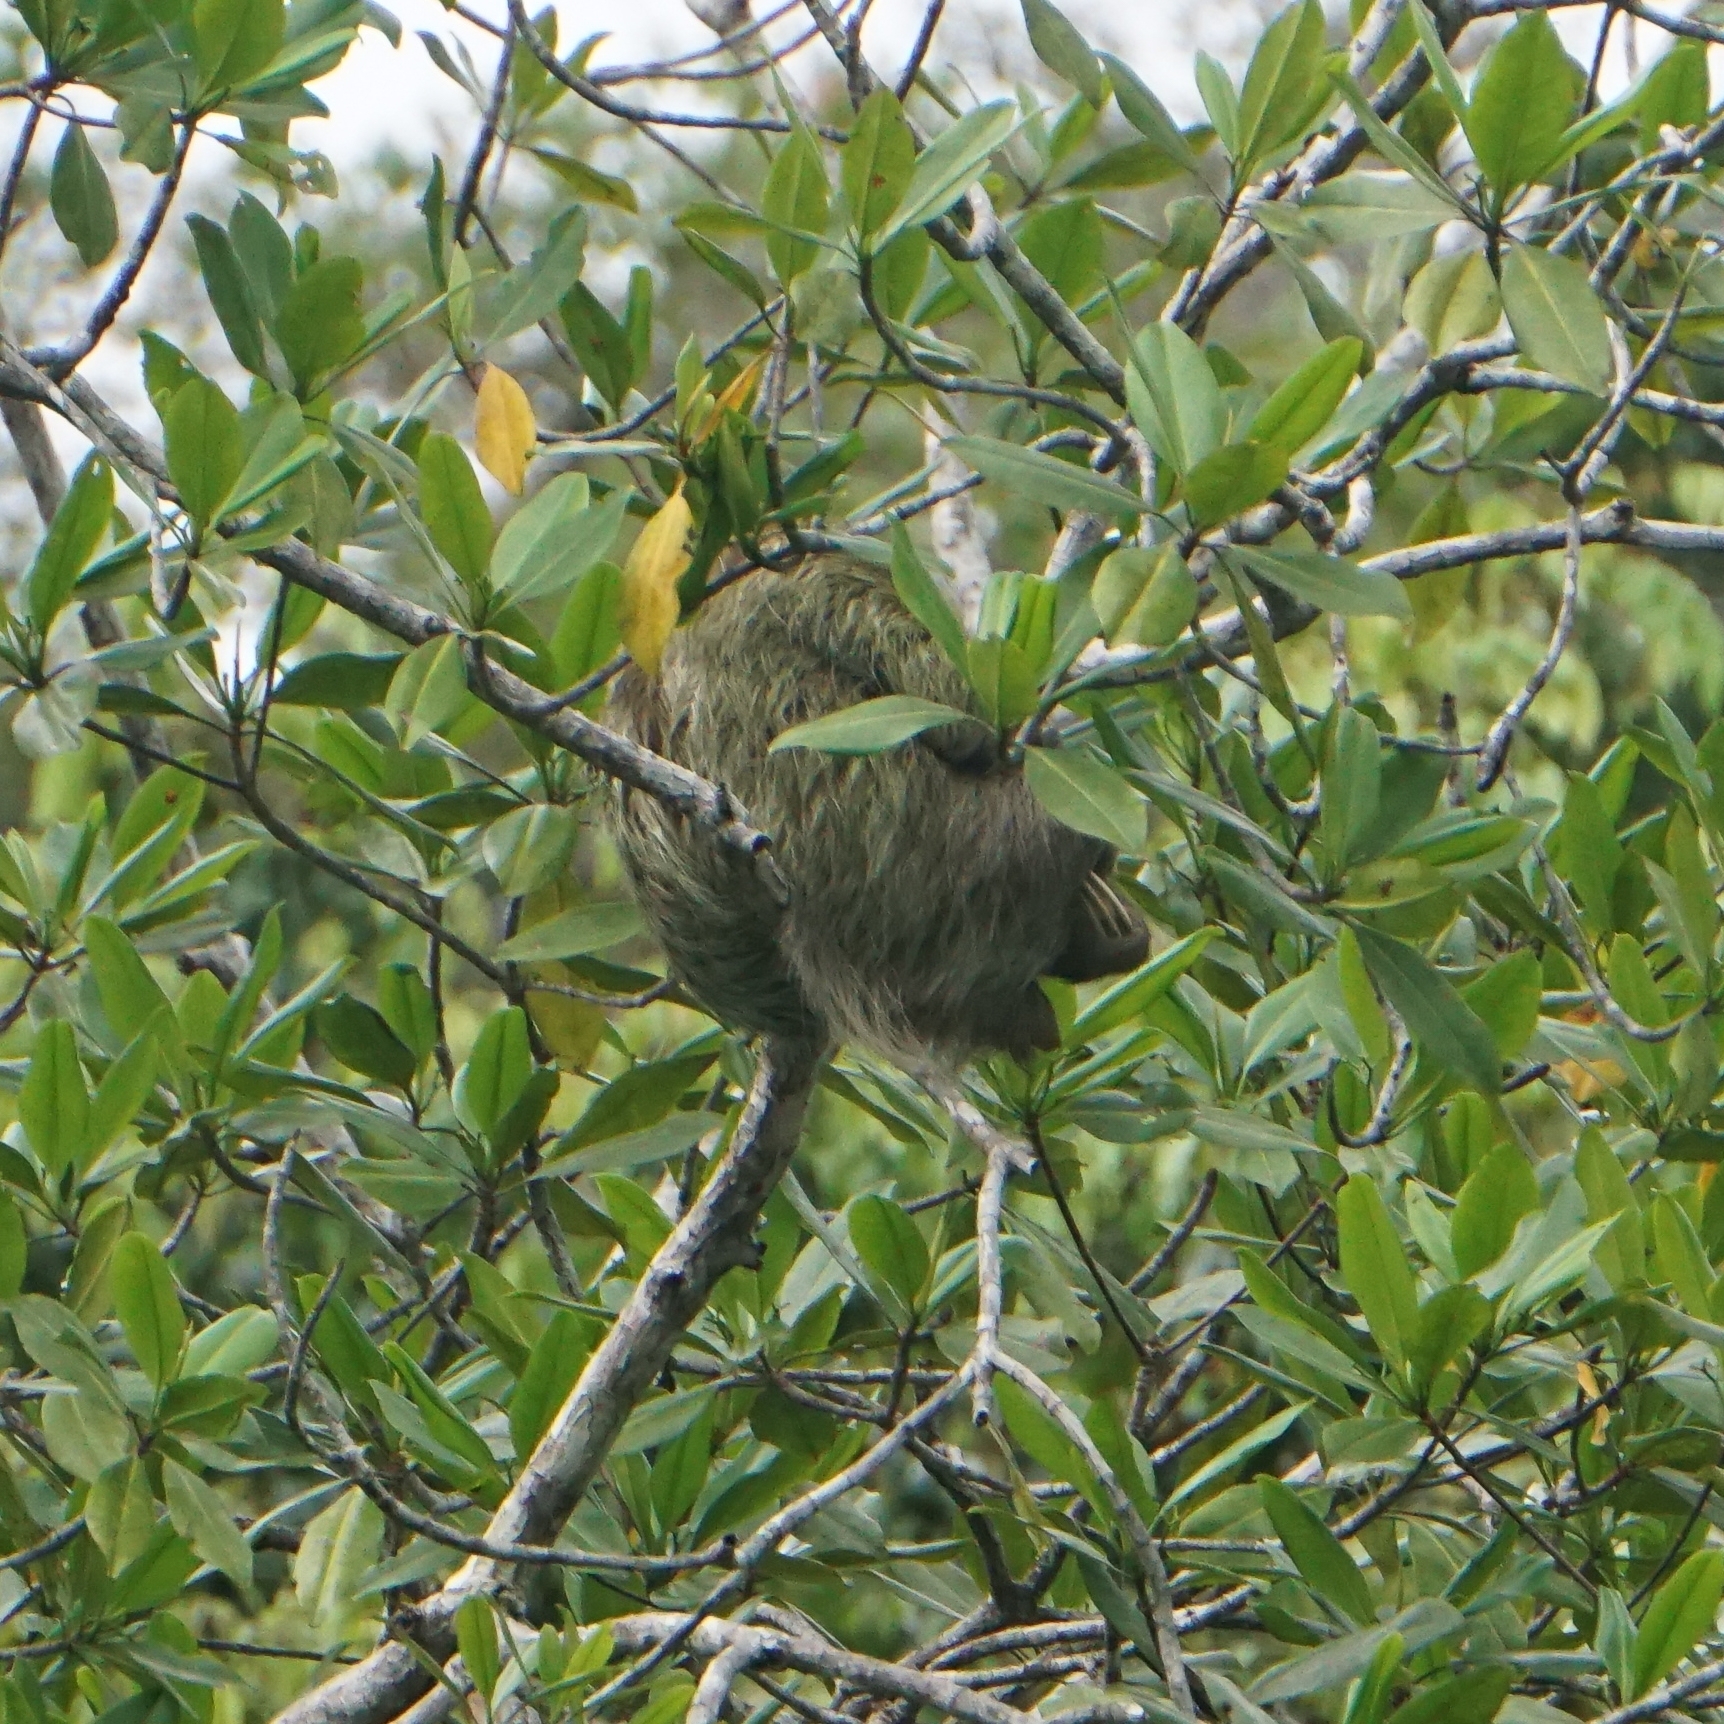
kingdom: Animalia
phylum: Chordata
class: Mammalia
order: Pilosa
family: Bradypodidae
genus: Bradypus
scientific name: Bradypus variegatus
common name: Brown-throated three-toed sloth
